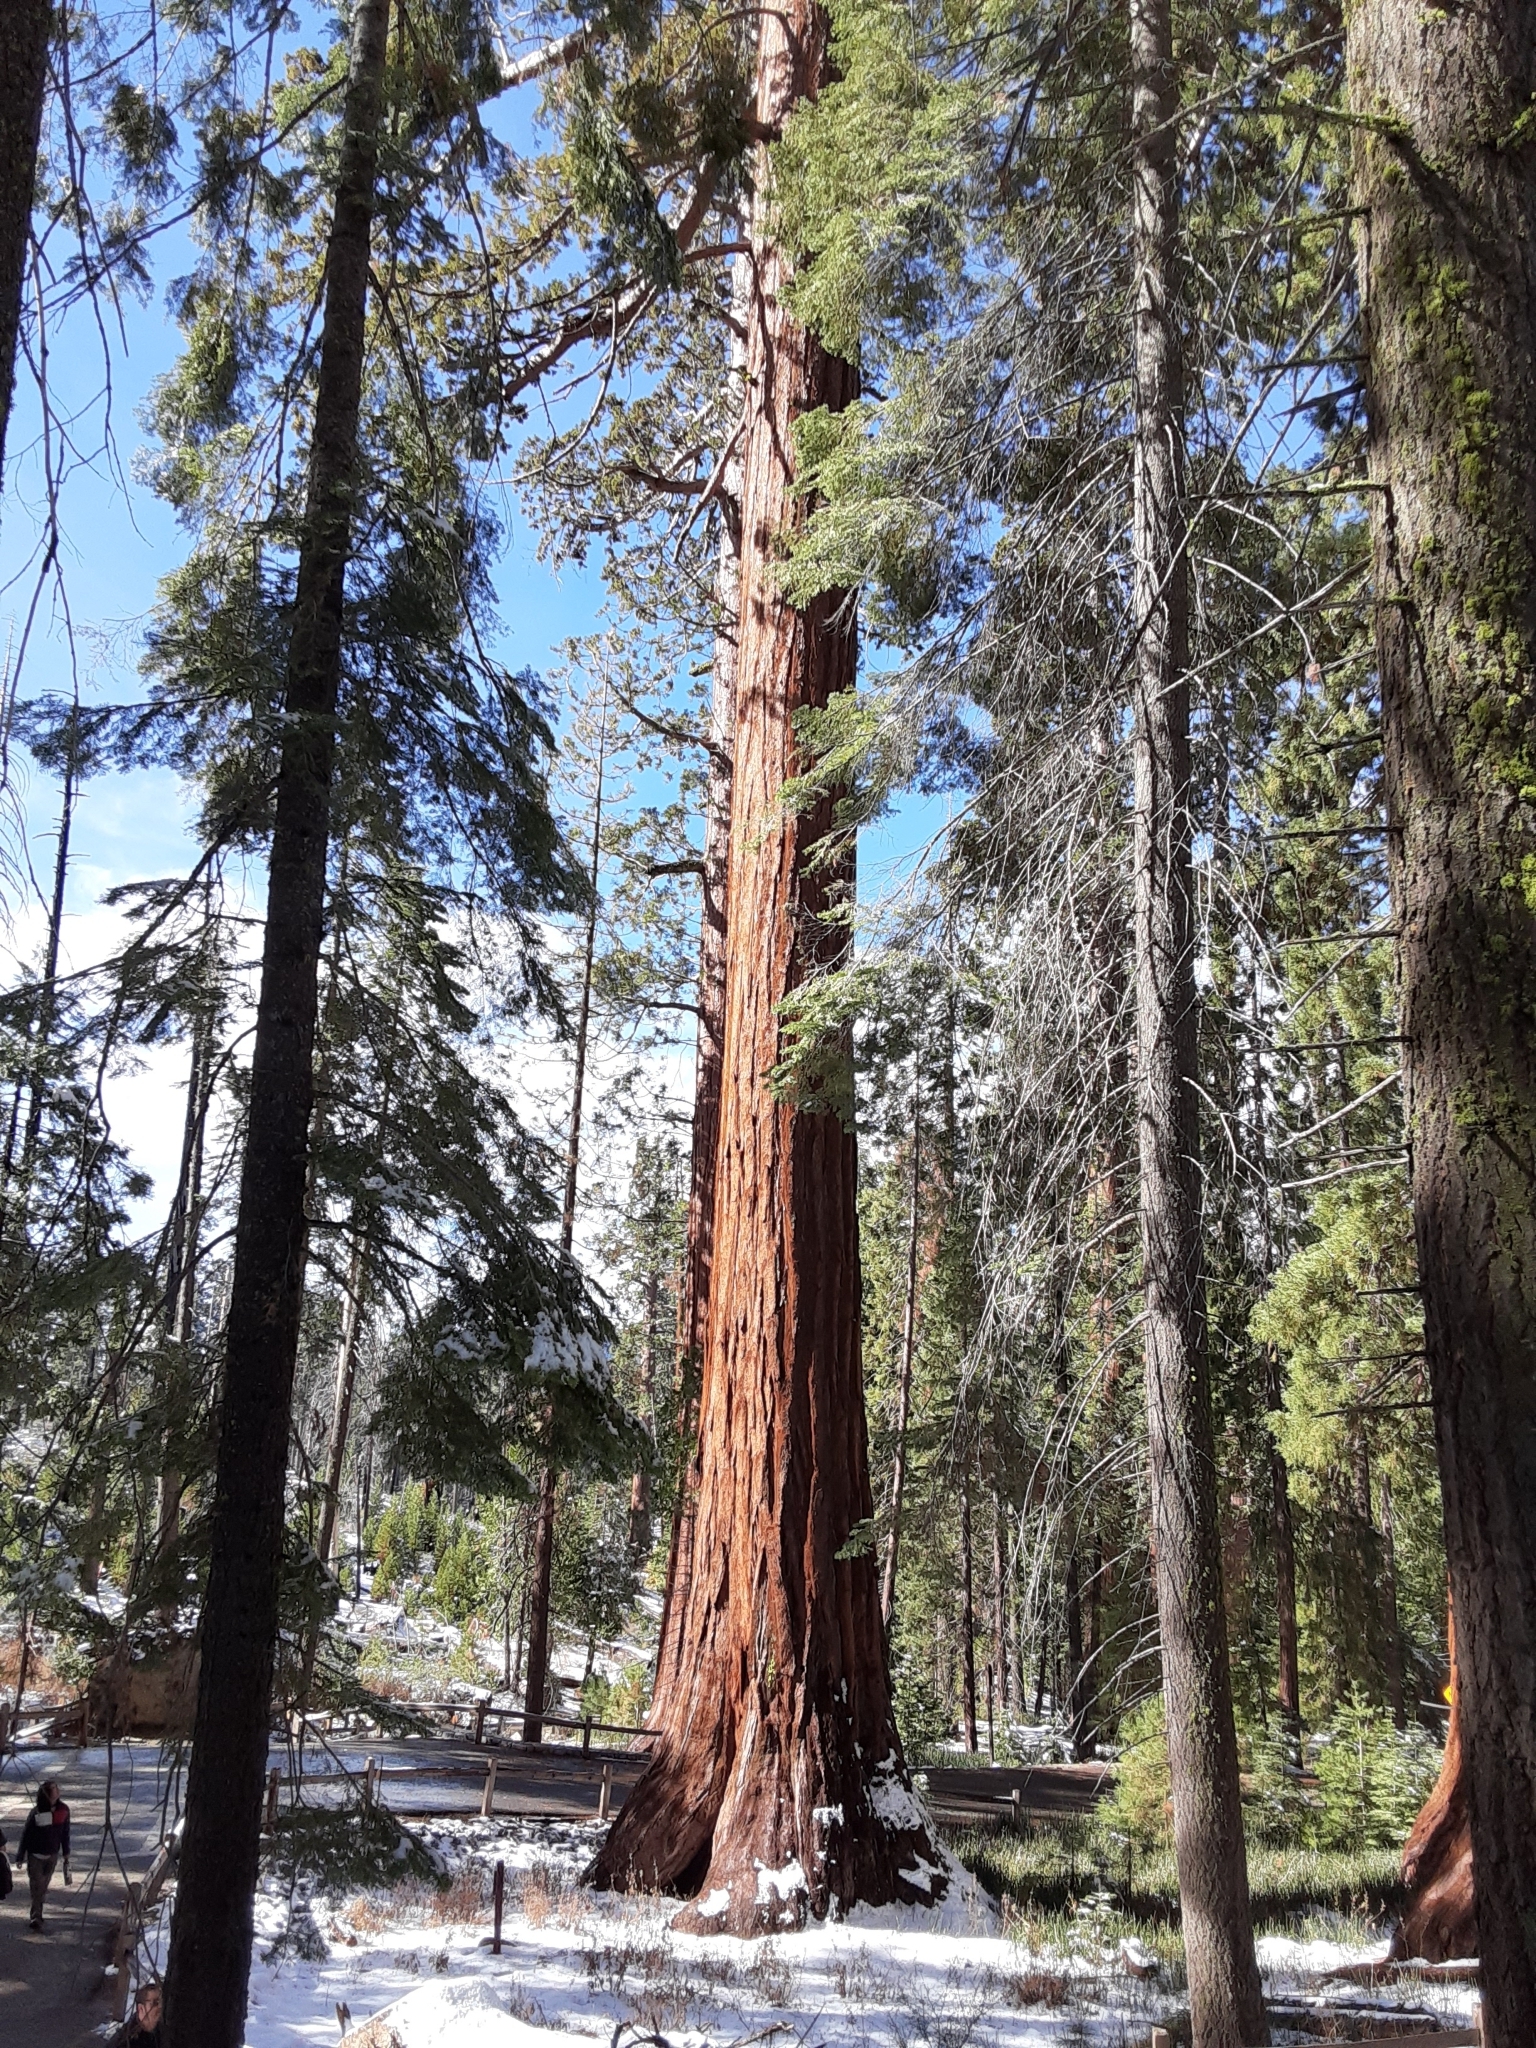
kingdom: Plantae
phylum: Tracheophyta
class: Pinopsida
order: Pinales
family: Cupressaceae
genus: Sequoiadendron
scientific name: Sequoiadendron giganteum
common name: Wellingtonia
